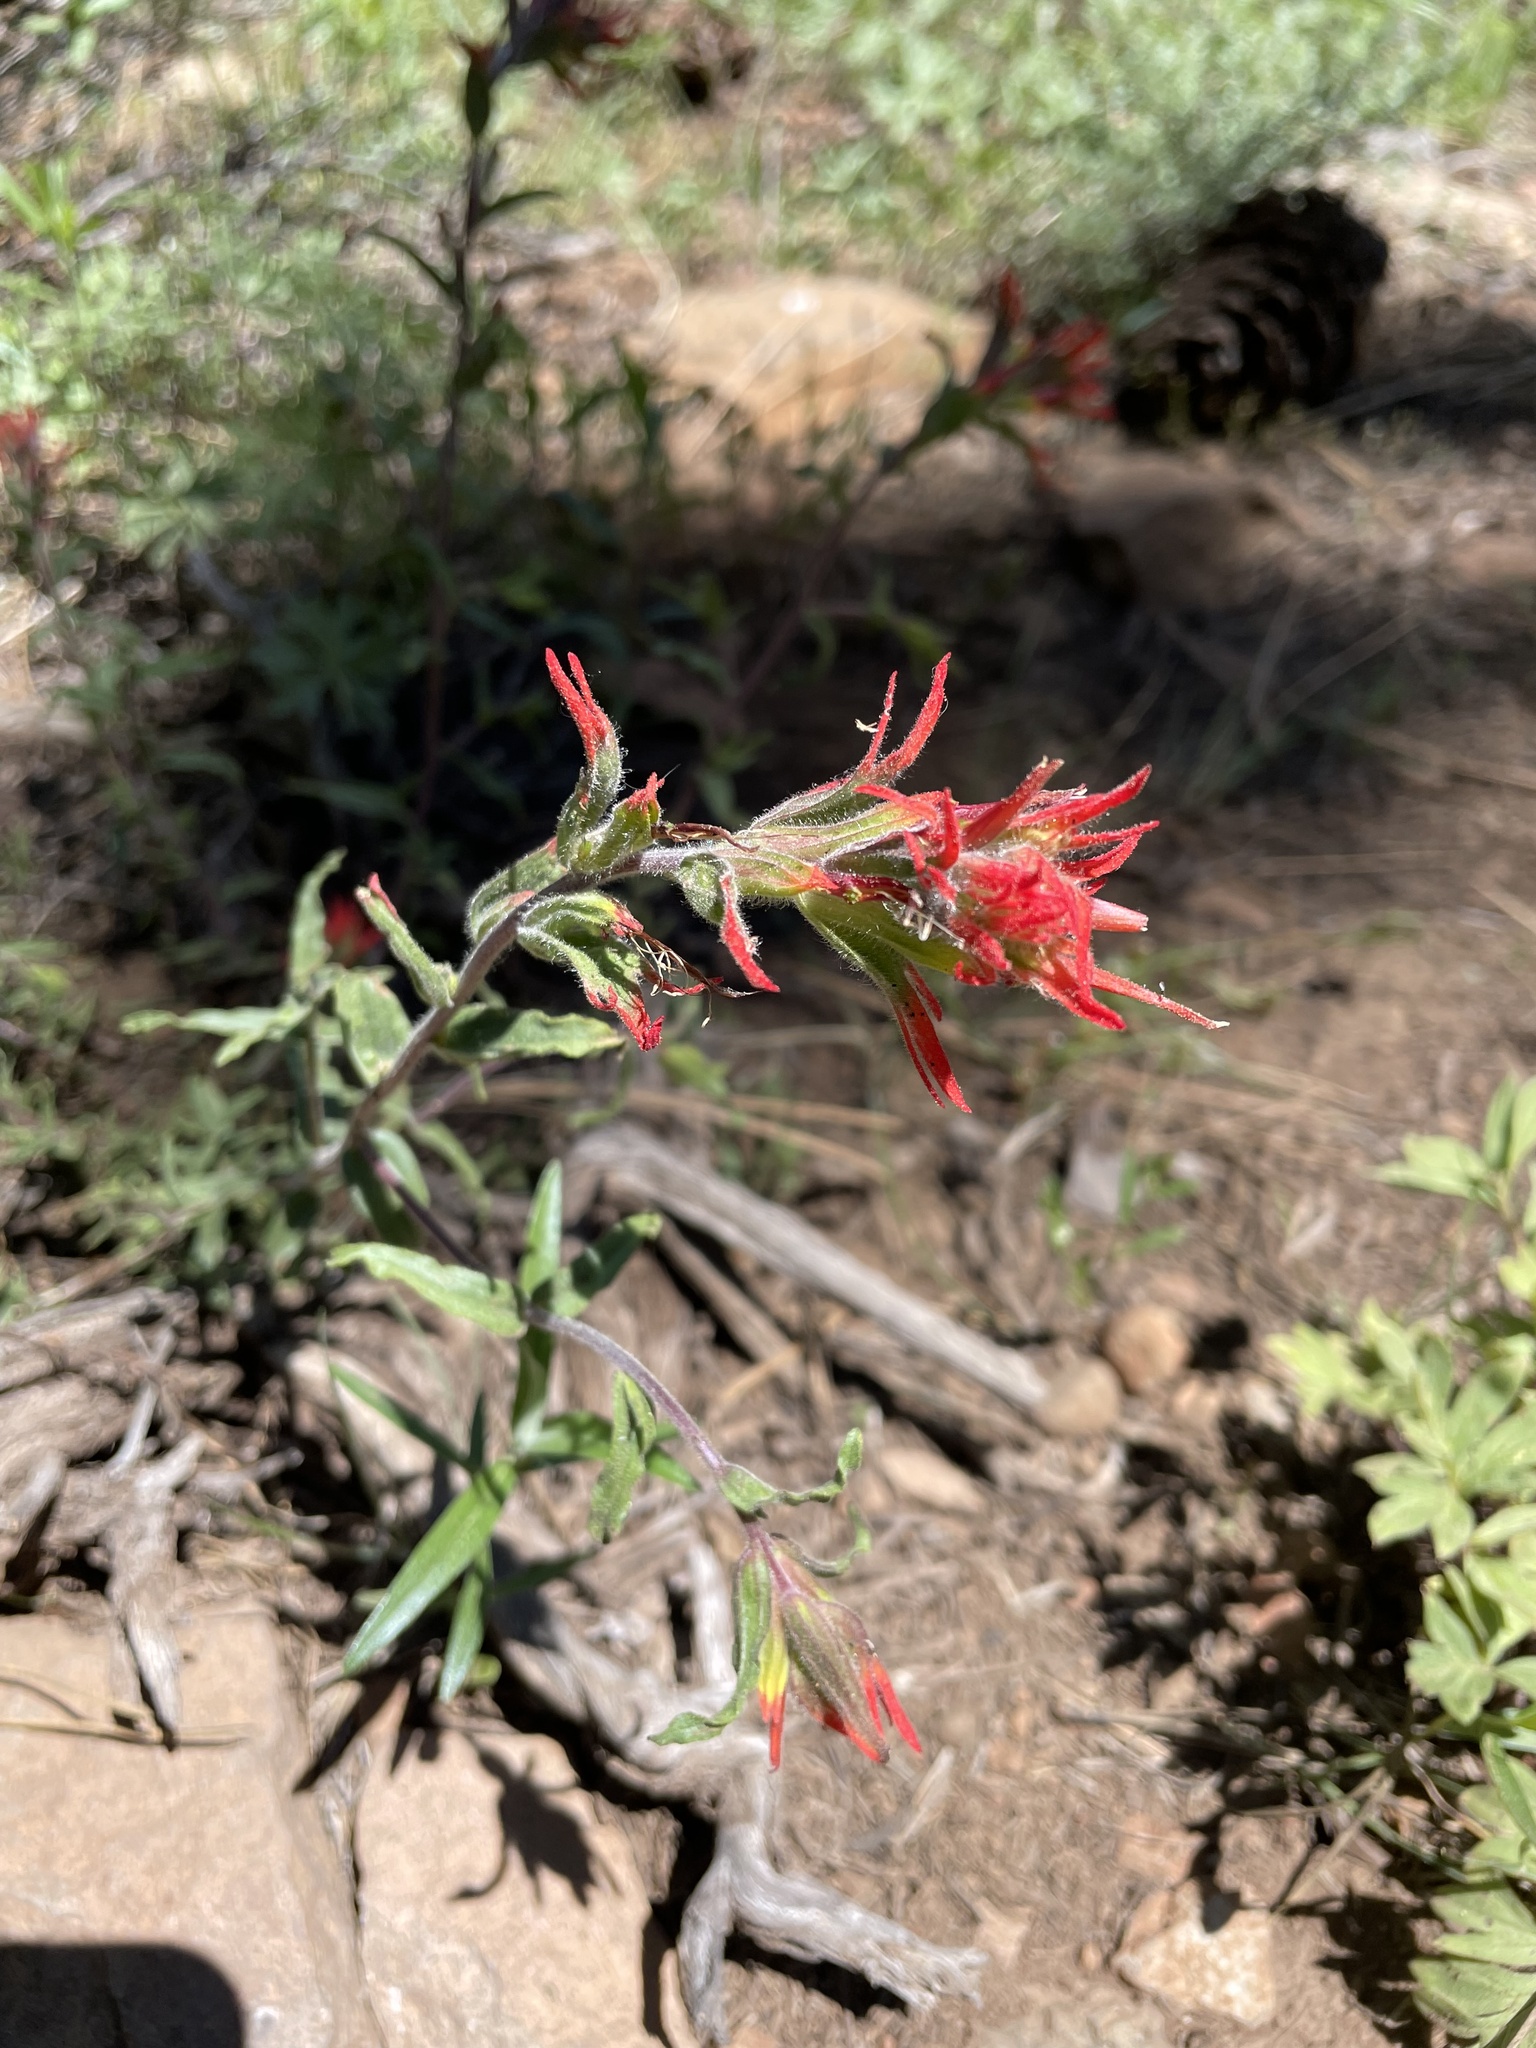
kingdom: Plantae
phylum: Tracheophyta
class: Magnoliopsida
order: Lamiales
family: Orobanchaceae
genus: Castilleja
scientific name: Castilleja applegatei
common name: Wavy-leaf paintbrush
